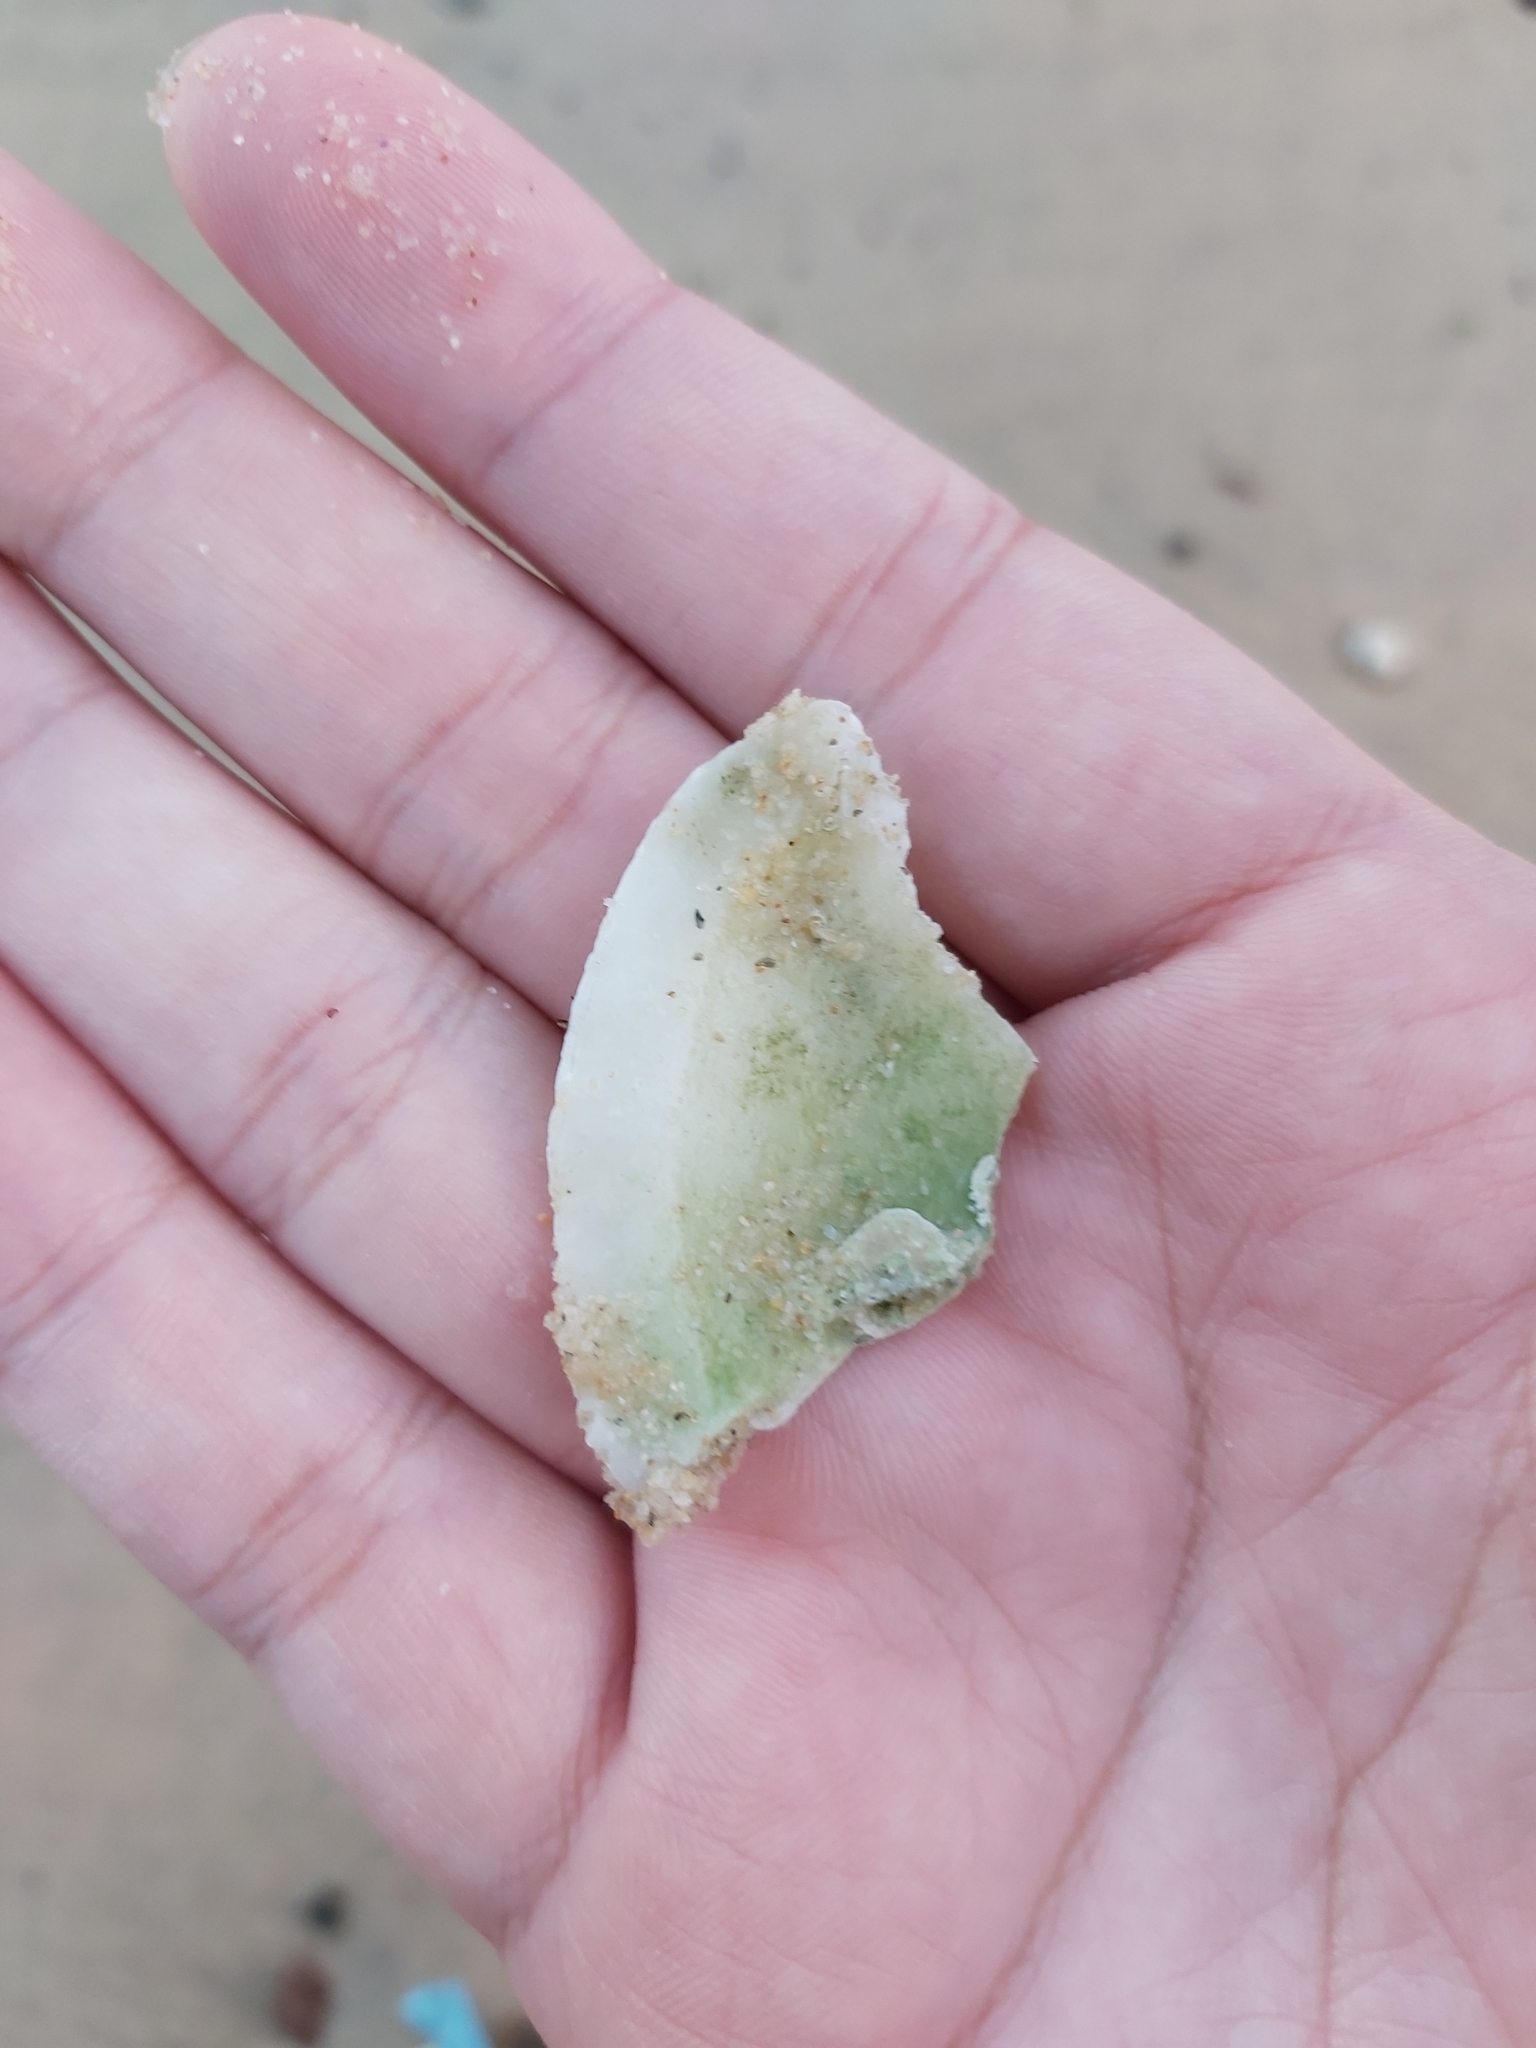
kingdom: Animalia
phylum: Mollusca
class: Bivalvia
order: Lucinida
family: Lucinidae
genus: Codakia
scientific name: Codakia rugifera
